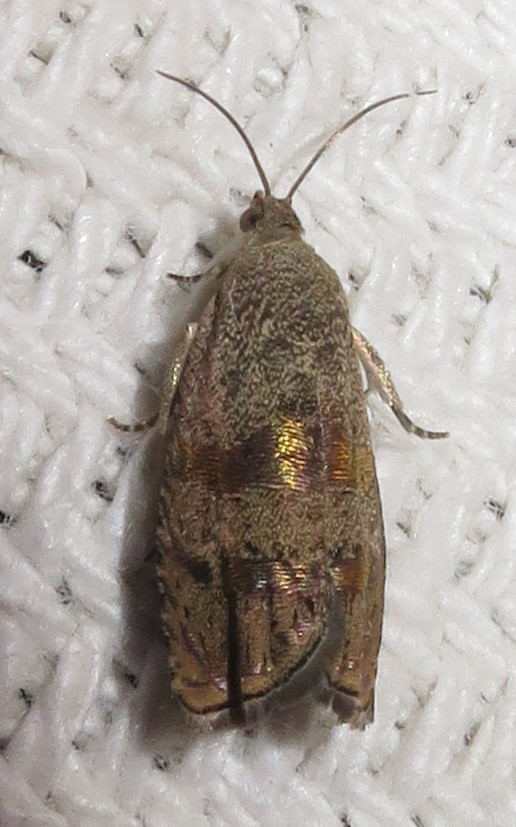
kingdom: Animalia
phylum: Arthropoda
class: Insecta
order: Lepidoptera
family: Tortricidae
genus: Cydia
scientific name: Cydia latiferreana
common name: Filbertworm moth
